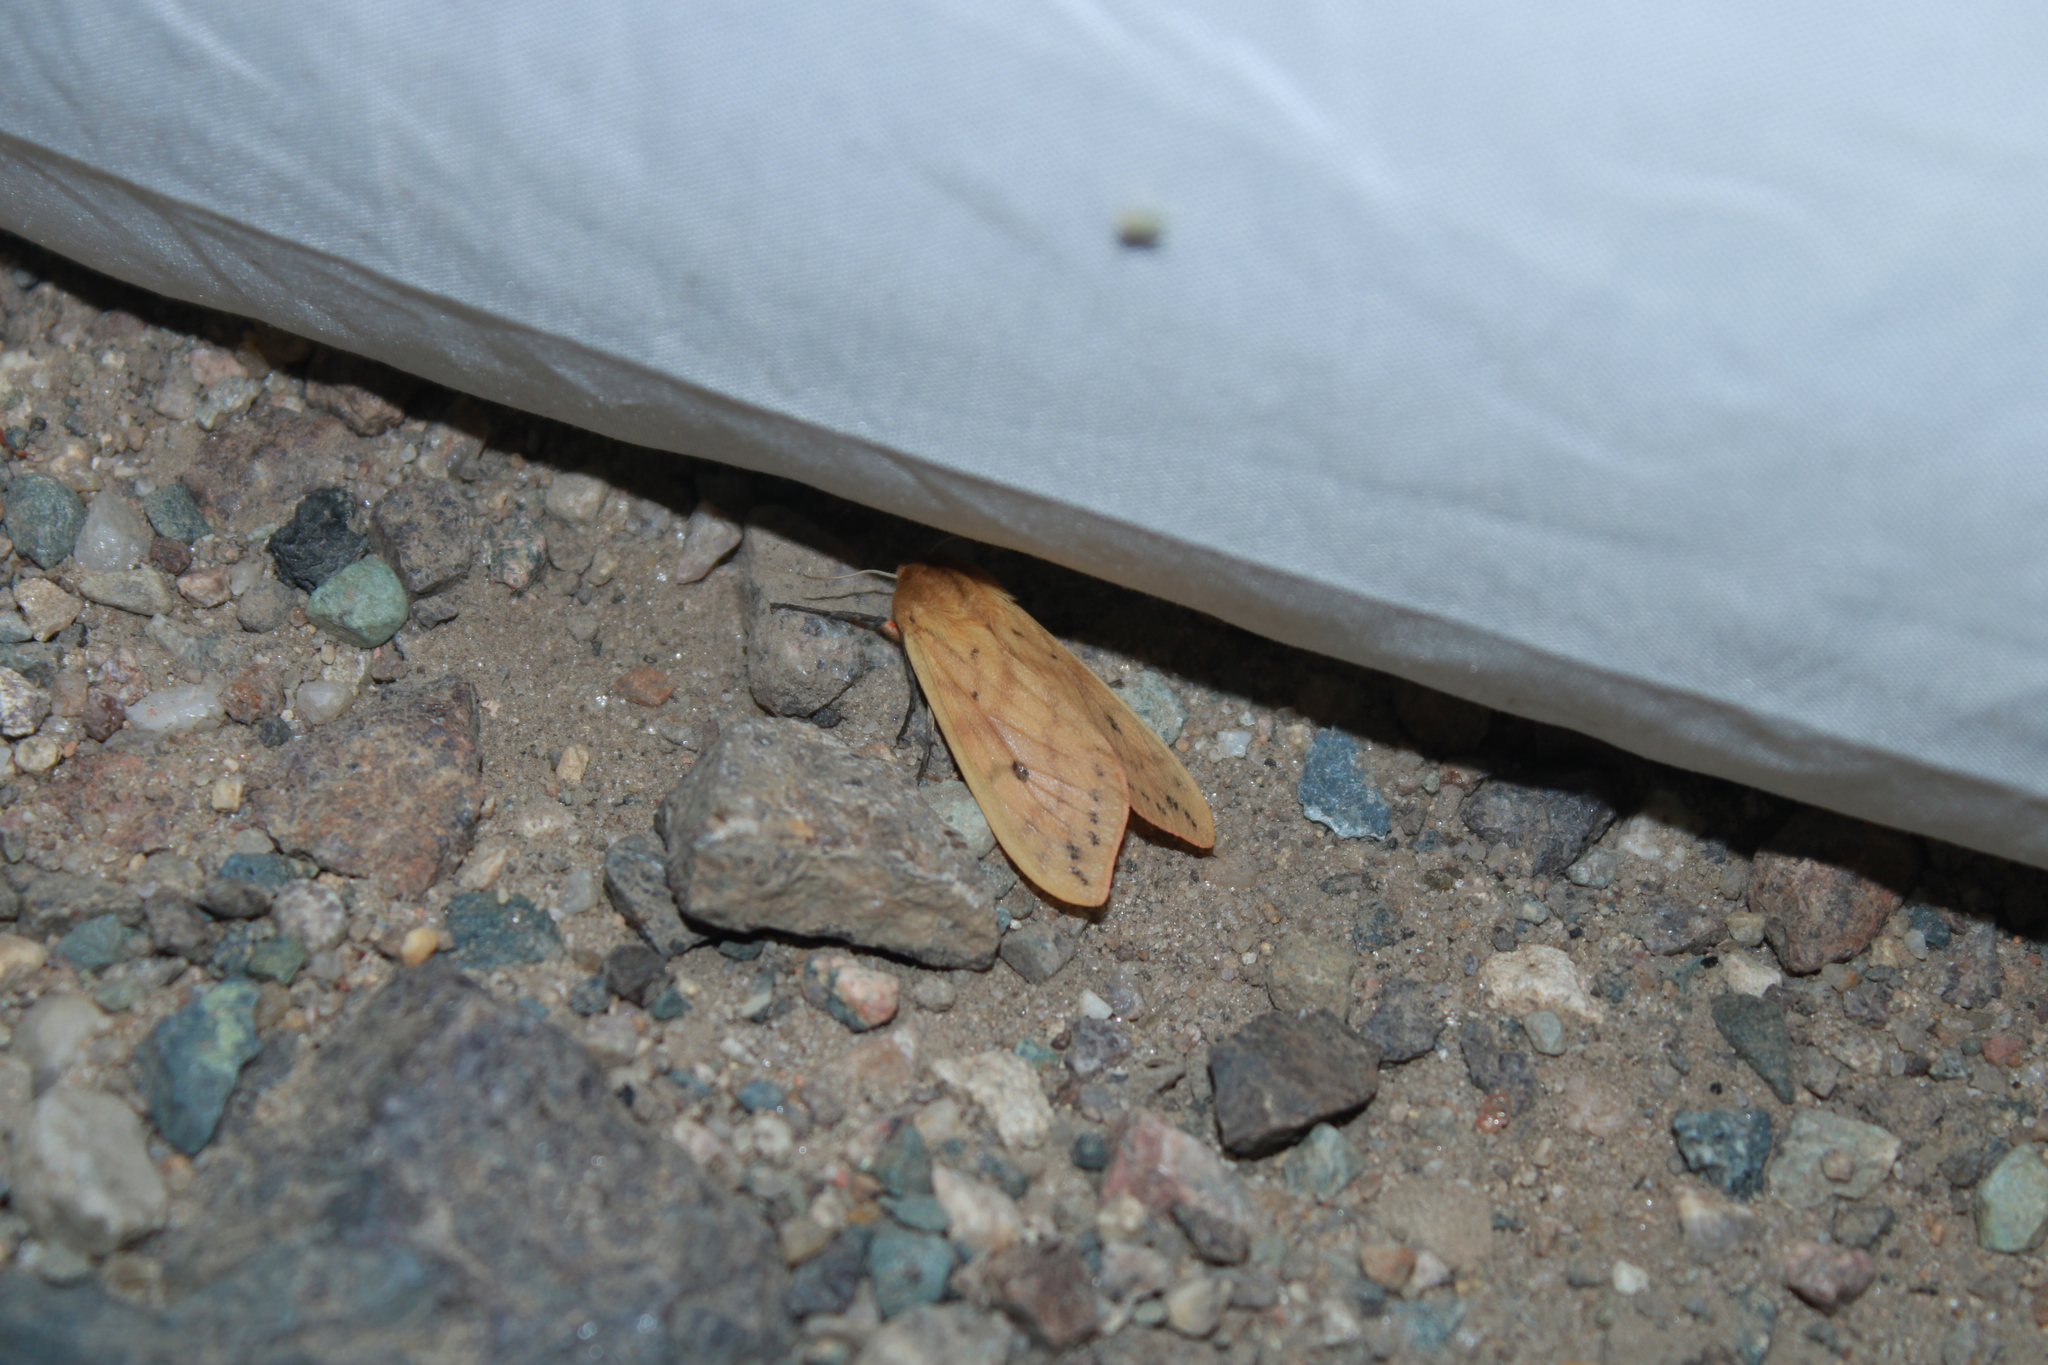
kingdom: Animalia
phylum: Arthropoda
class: Insecta
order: Lepidoptera
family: Erebidae
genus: Pyrrharctia
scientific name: Pyrrharctia isabella
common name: Isabella tiger moth
